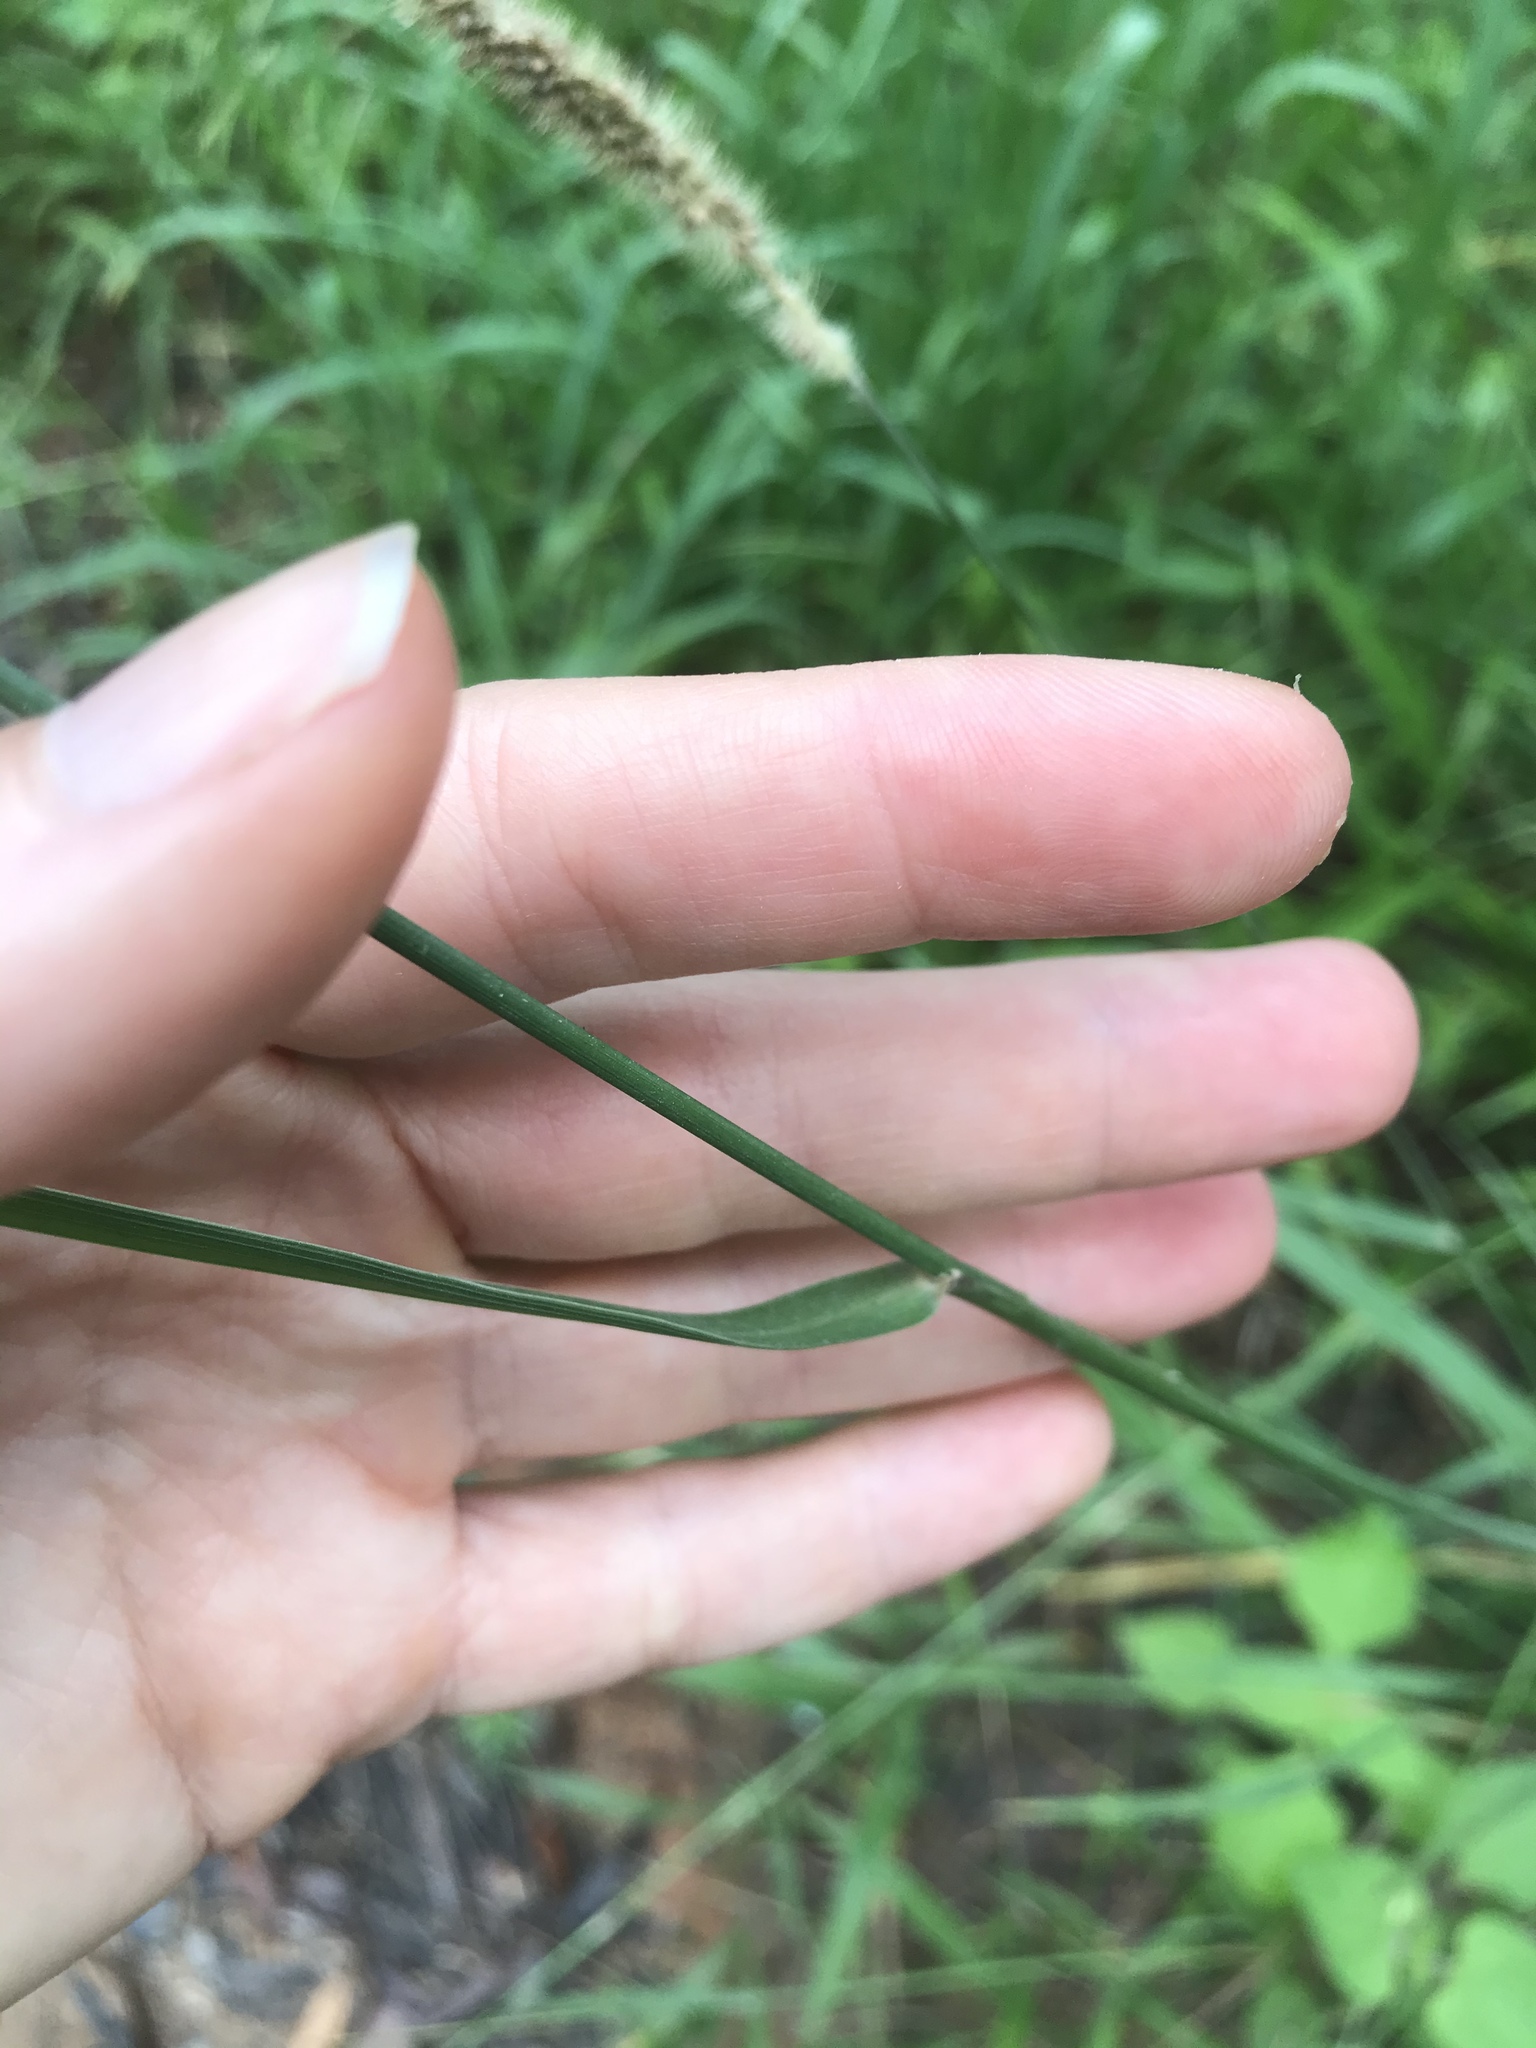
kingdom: Plantae
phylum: Tracheophyta
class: Liliopsida
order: Poales
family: Poaceae
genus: Setaria
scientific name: Setaria sphacelata
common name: African bristlegrass
